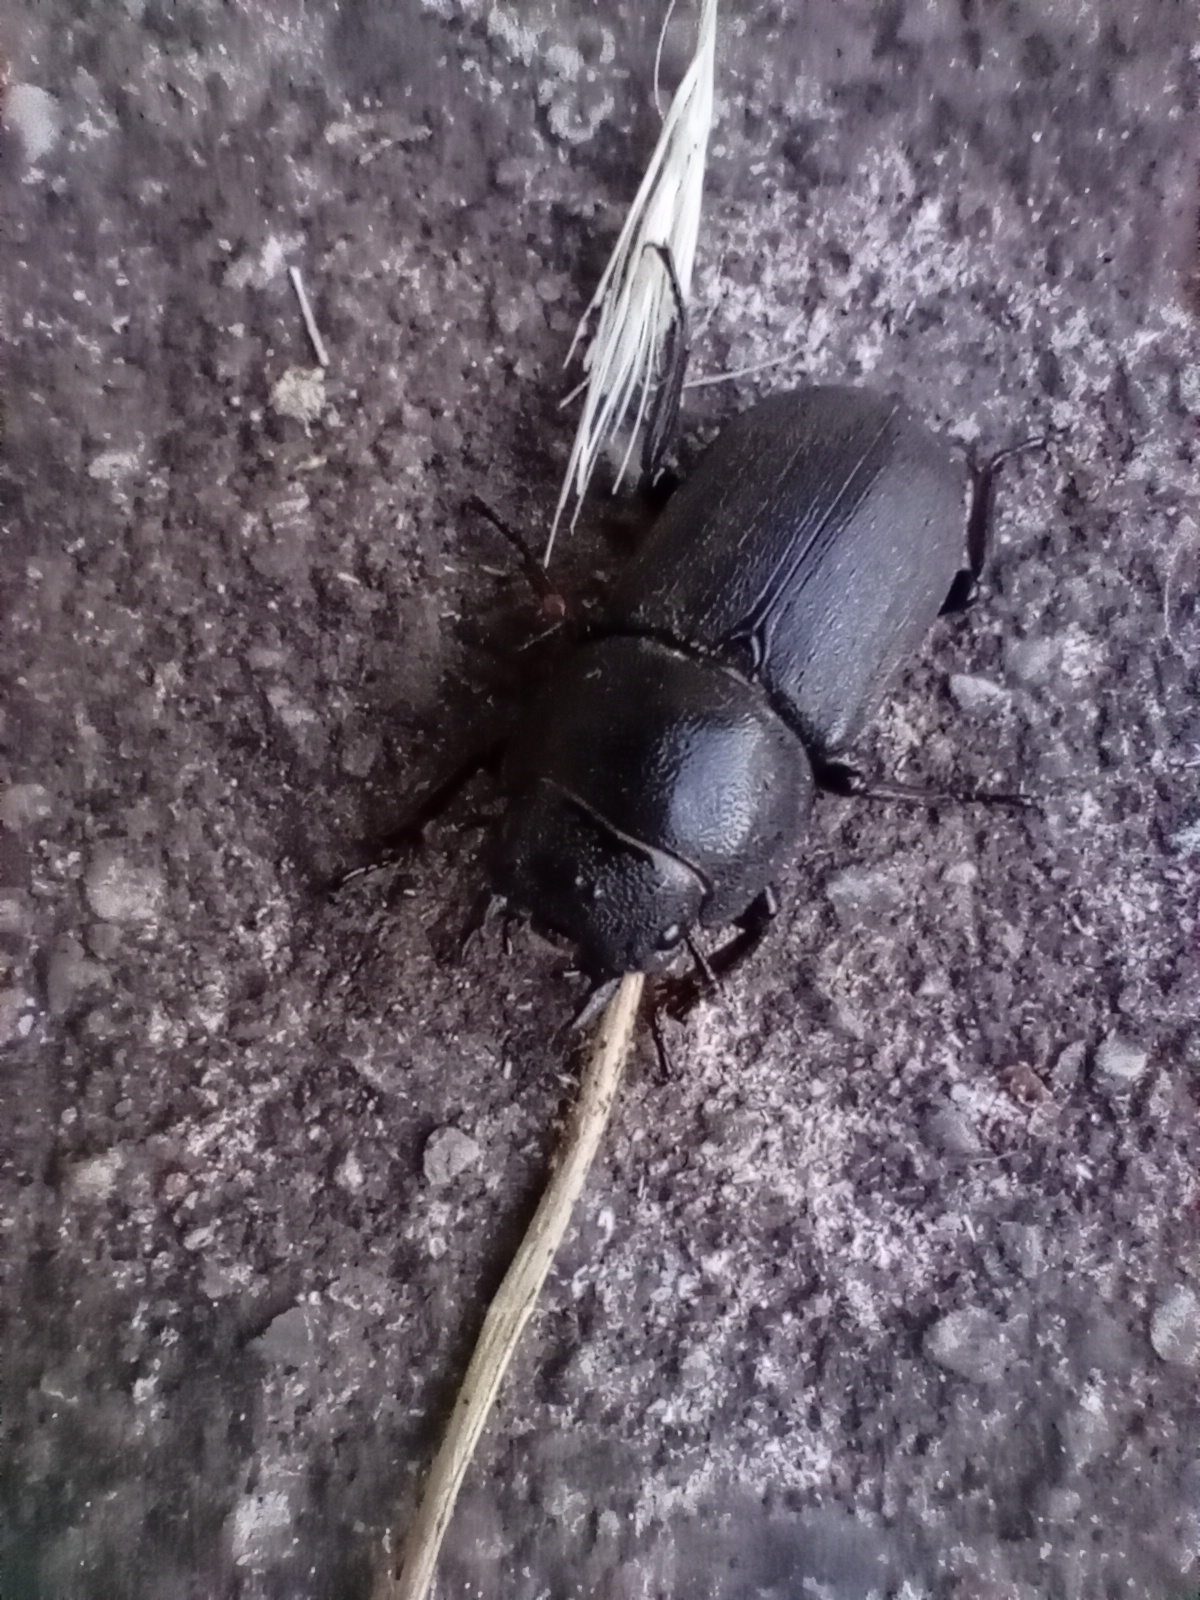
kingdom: Animalia
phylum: Arthropoda
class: Insecta
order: Coleoptera
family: Lucanidae
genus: Dorcus
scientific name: Dorcus parallelipipedus
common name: Lesser stag beetle
